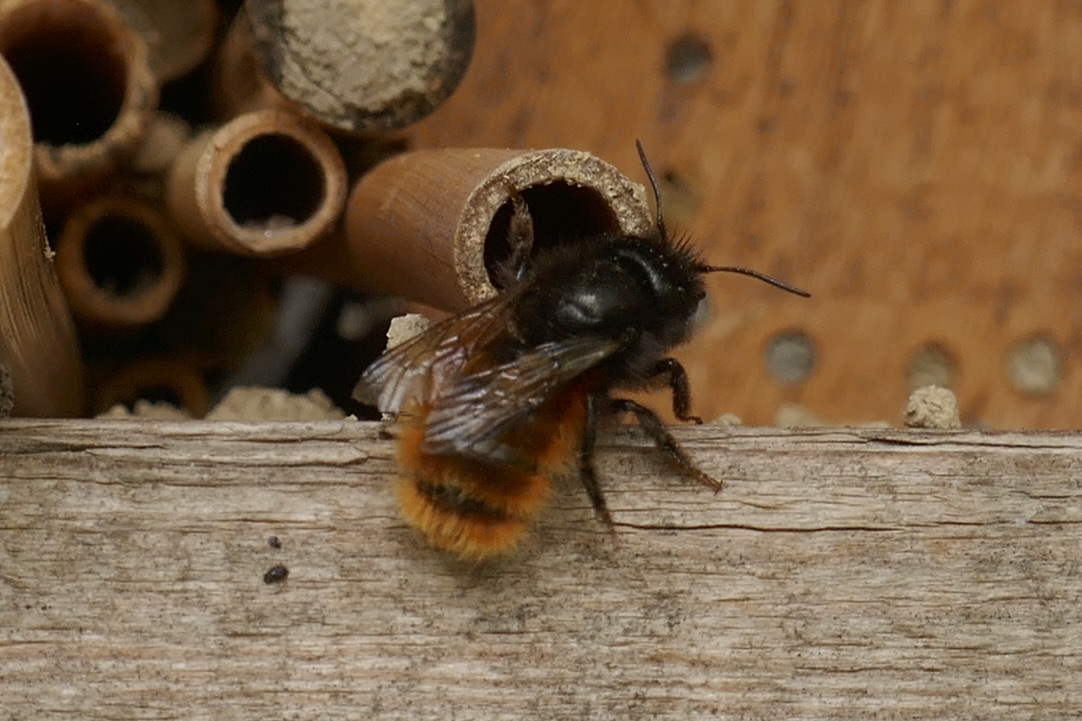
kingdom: Animalia
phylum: Arthropoda
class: Insecta
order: Hymenoptera
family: Megachilidae
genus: Osmia
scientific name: Osmia cornuta
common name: Mason bee
